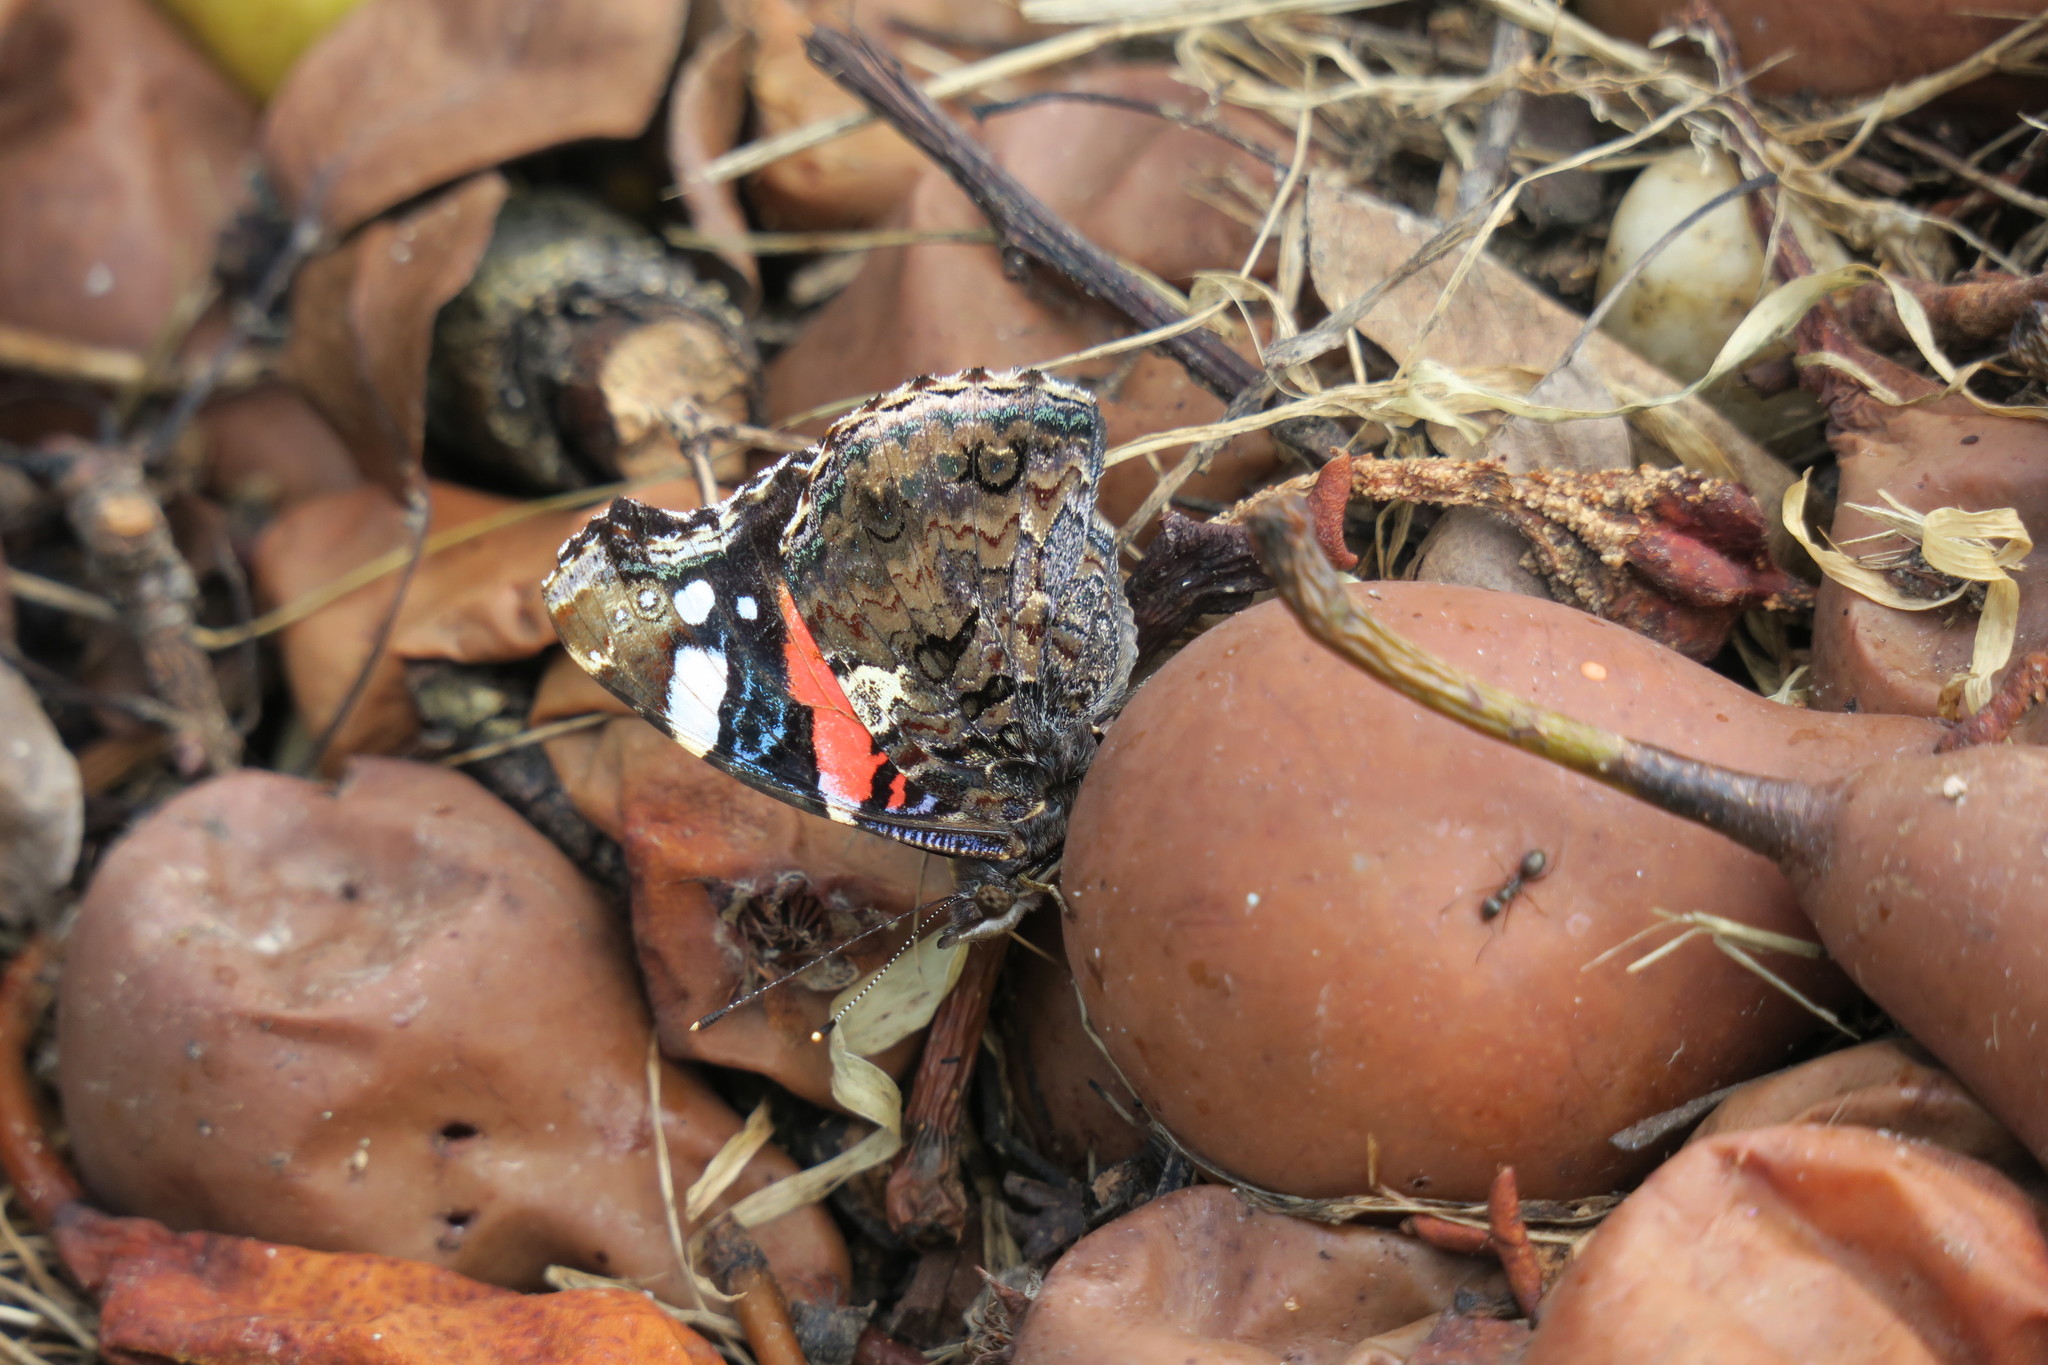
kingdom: Animalia
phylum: Arthropoda
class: Insecta
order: Lepidoptera
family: Nymphalidae
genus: Vanessa
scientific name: Vanessa atalanta
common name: Red admiral
